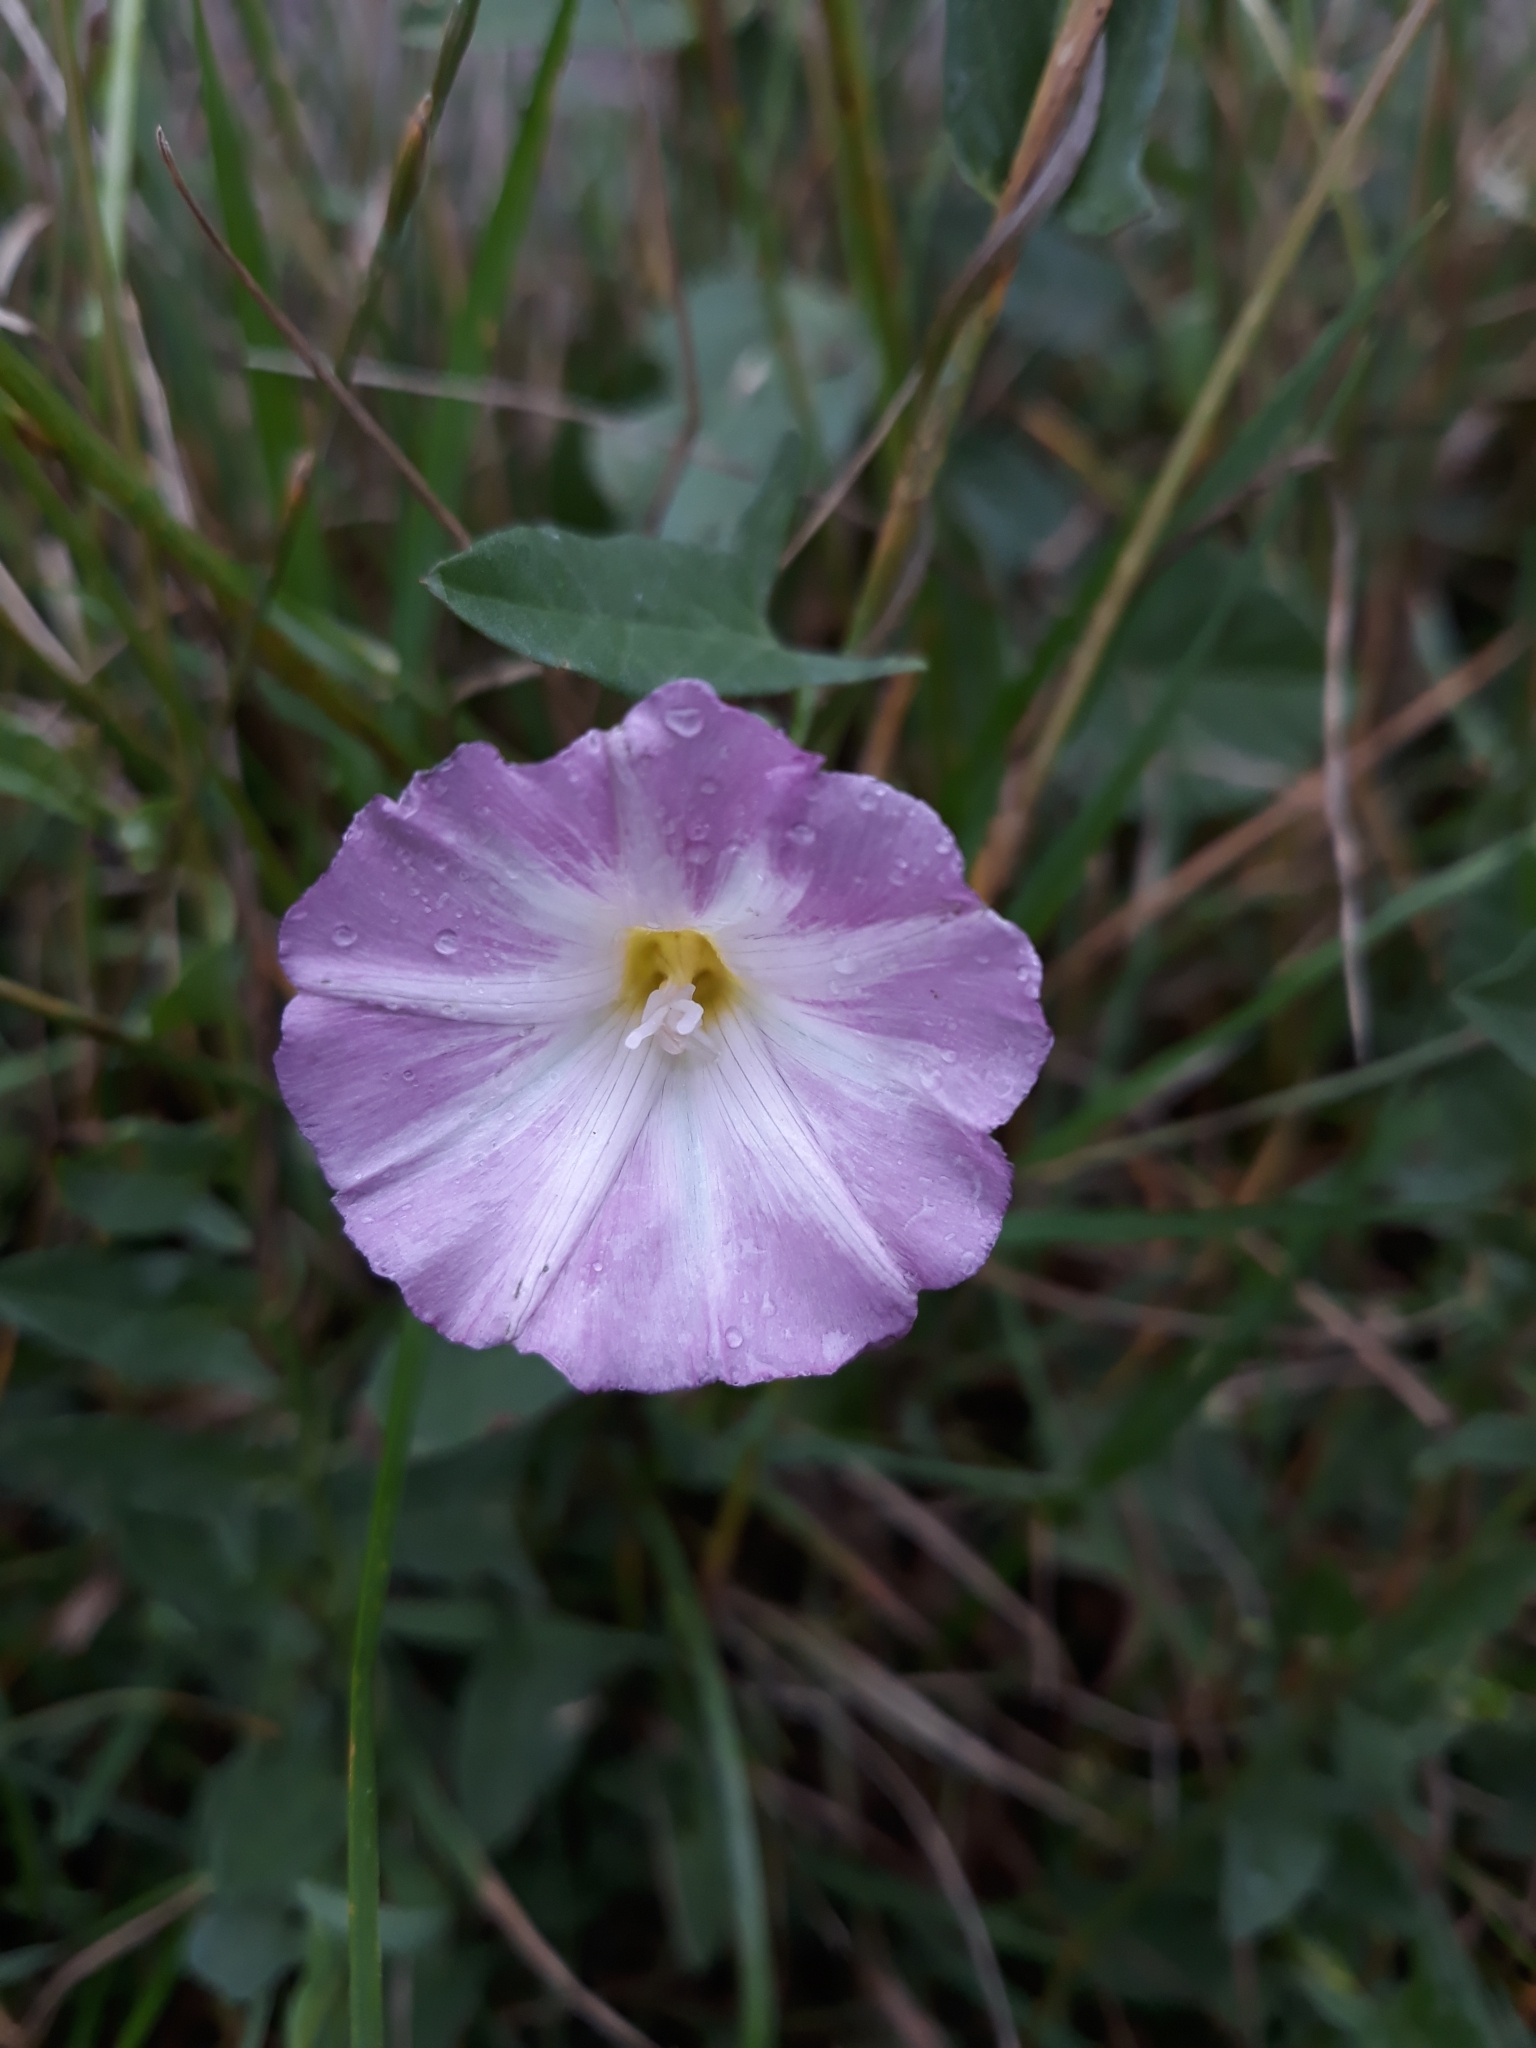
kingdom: Plantae
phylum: Tracheophyta
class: Magnoliopsida
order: Solanales
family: Convolvulaceae
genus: Convolvulus
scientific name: Convolvulus arvensis
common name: Field bindweed
